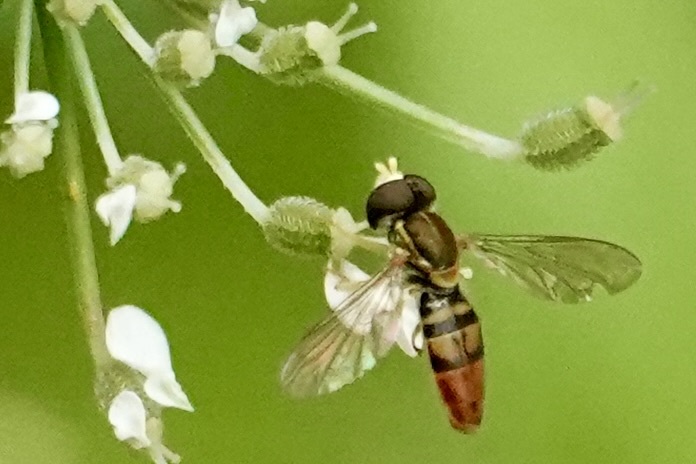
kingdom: Animalia
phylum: Arthropoda
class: Insecta
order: Diptera
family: Syrphidae
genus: Toxomerus
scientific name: Toxomerus marginatus
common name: Syrphid fly
